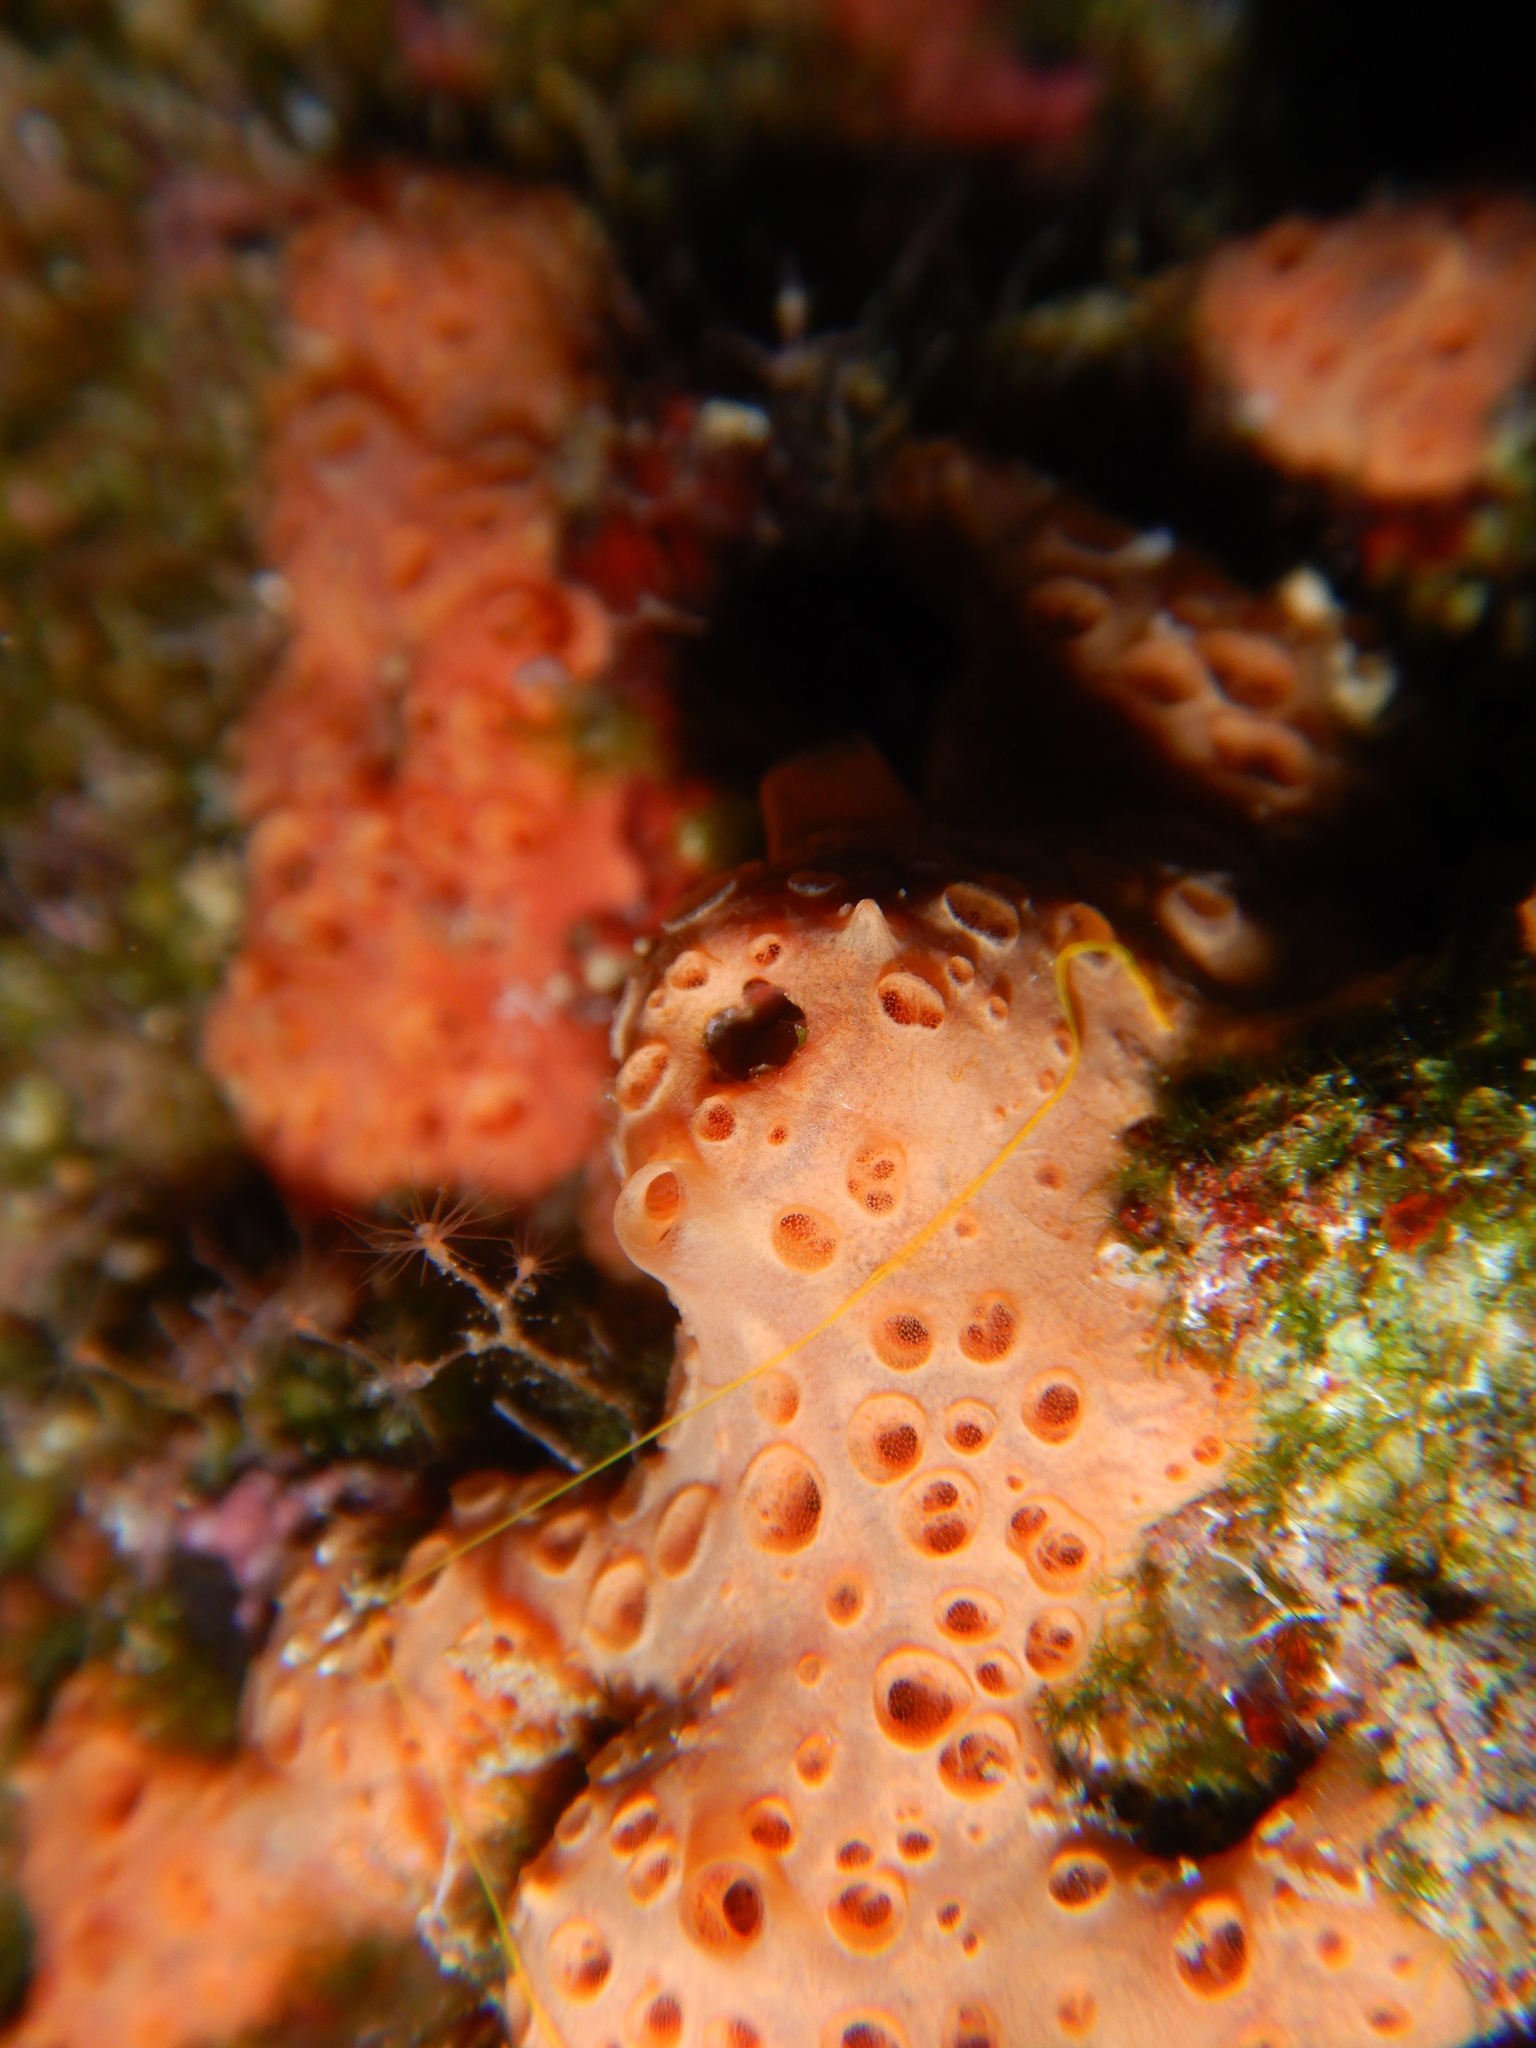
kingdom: Animalia
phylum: Porifera
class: Demospongiae
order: Poecilosclerida
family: Hymedesmiidae
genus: Hemimycale
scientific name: Hemimycale columella
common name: Crater sponge
